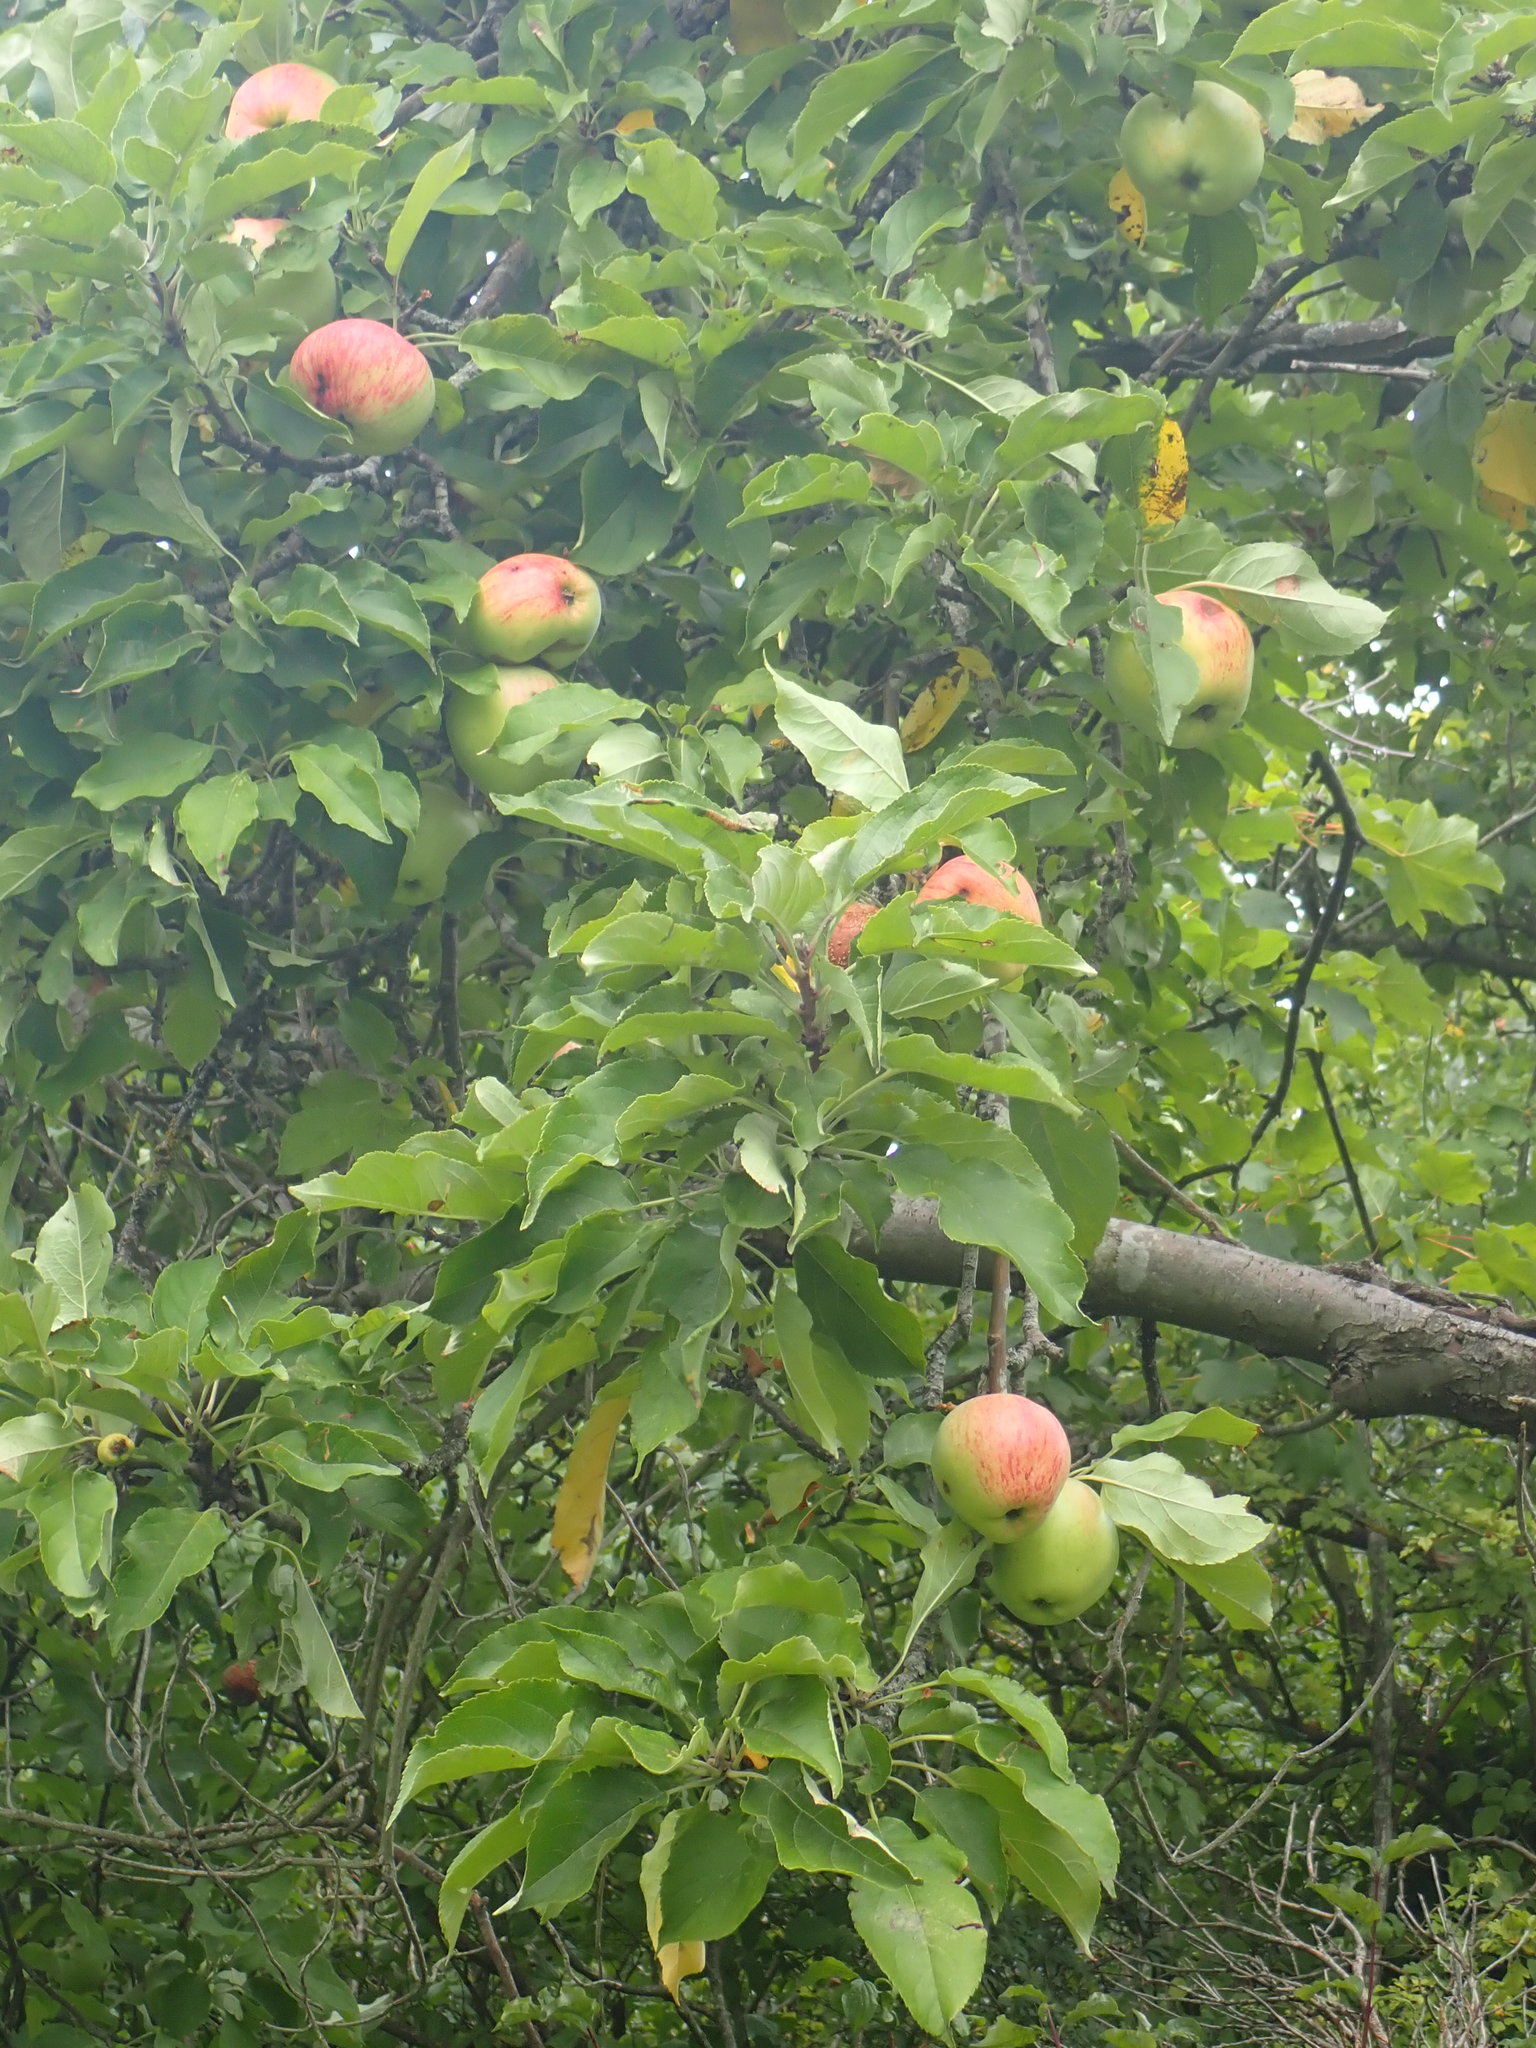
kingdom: Plantae
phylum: Tracheophyta
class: Magnoliopsida
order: Rosales
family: Rosaceae
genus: Malus
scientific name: Malus domestica
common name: Apple
